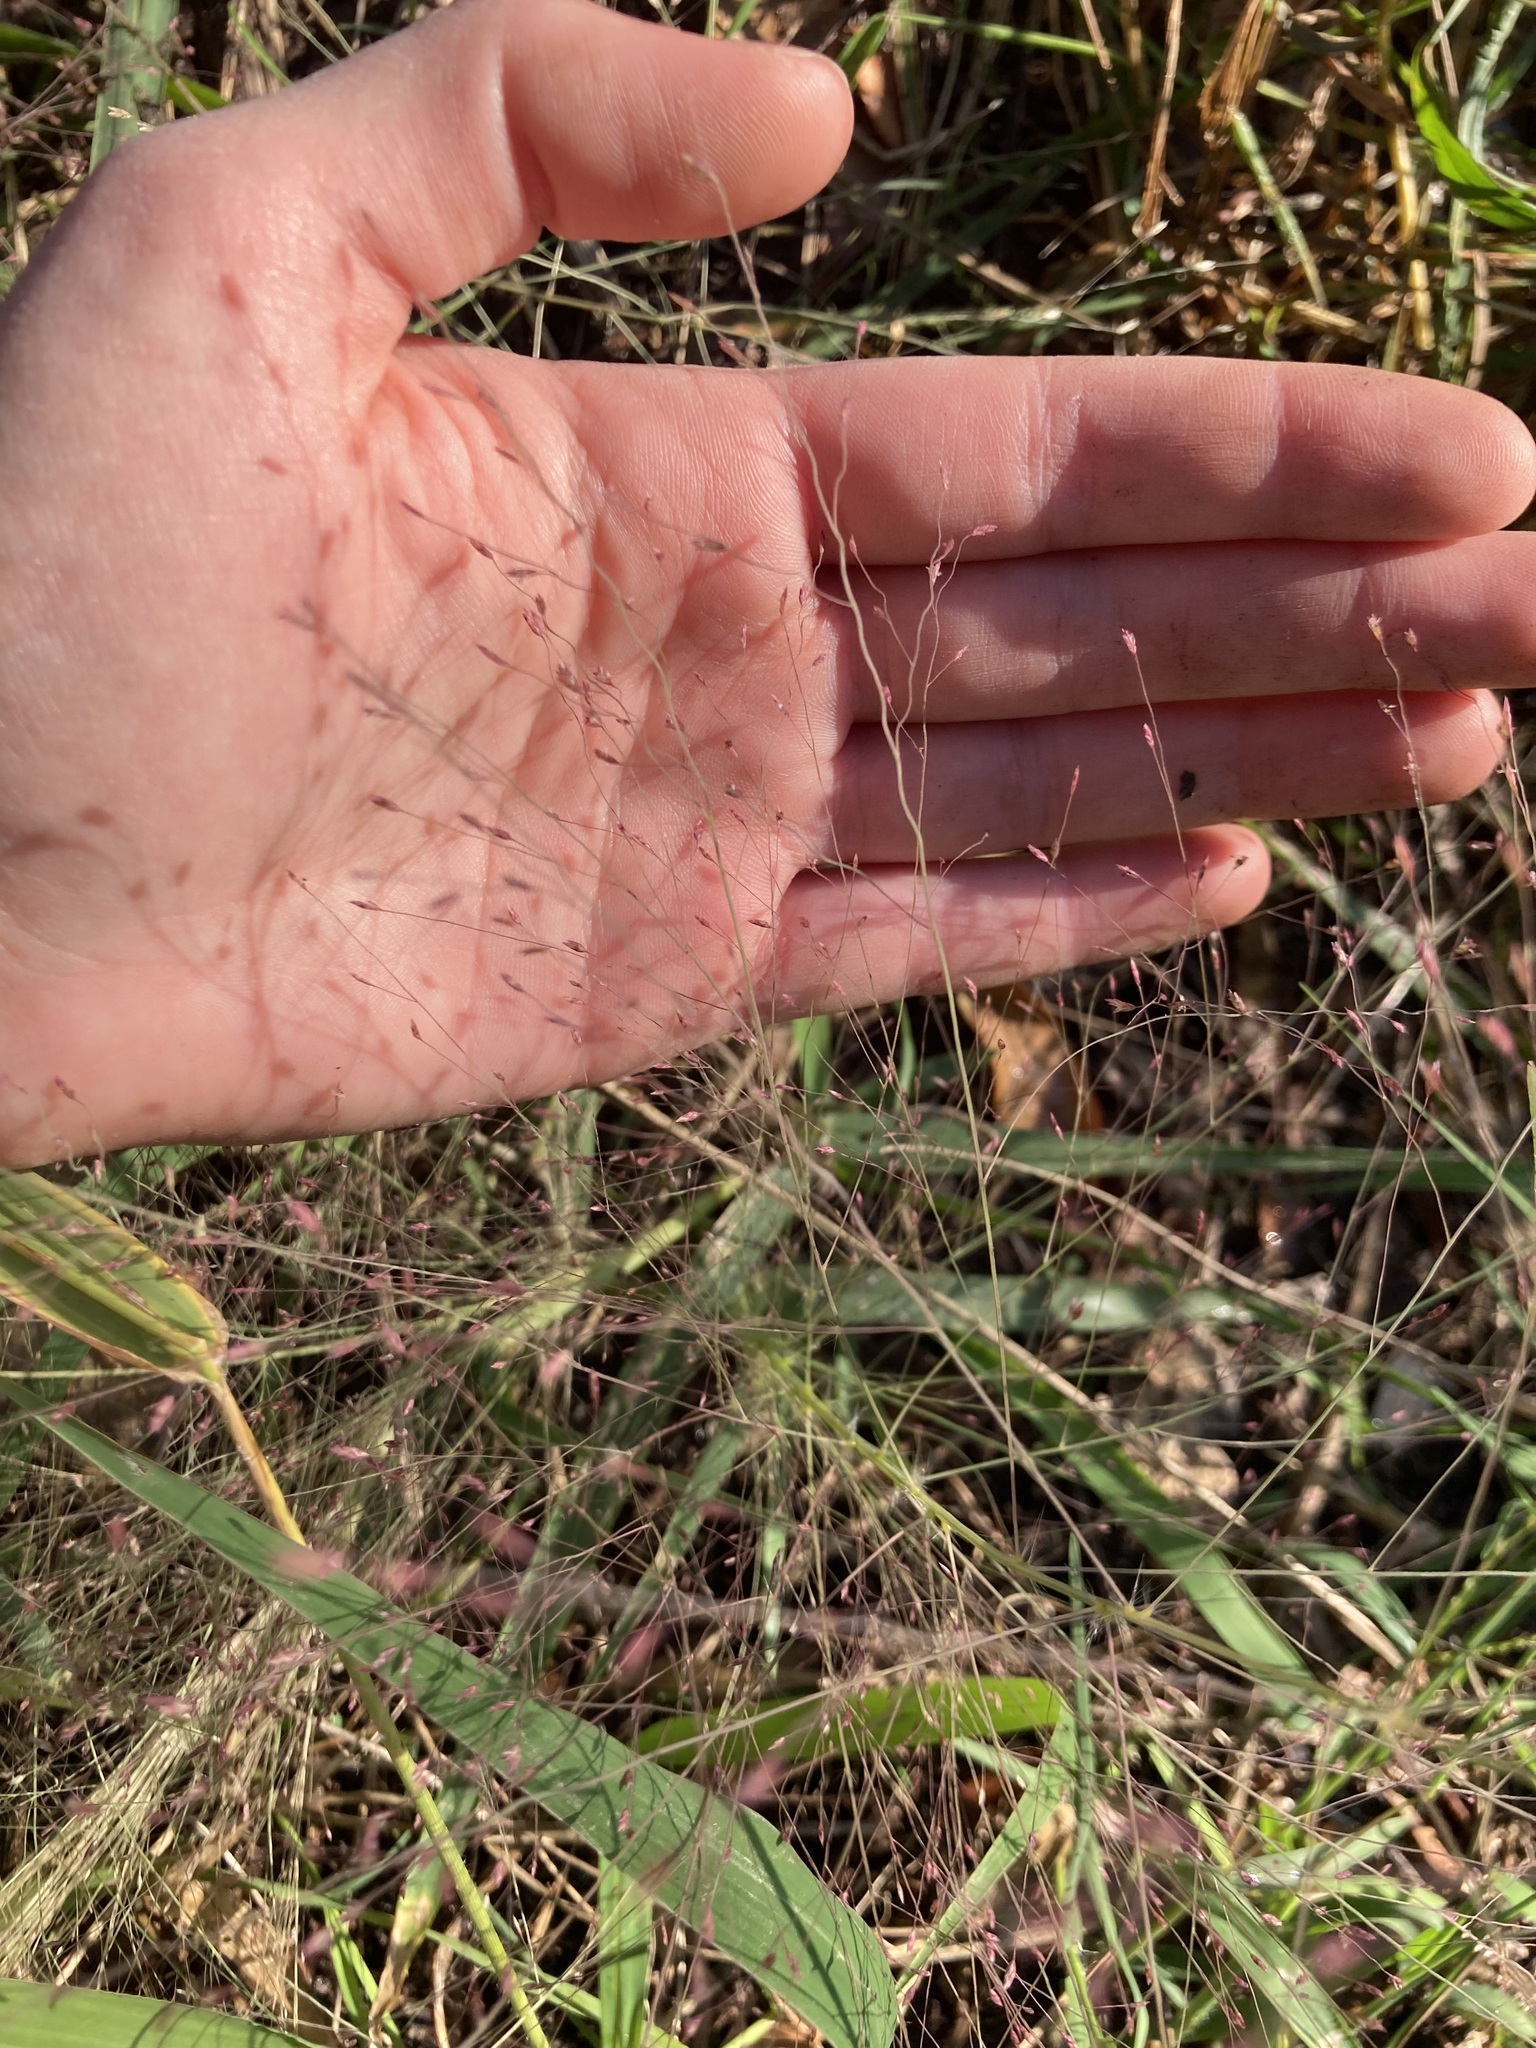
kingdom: Plantae
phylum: Tracheophyta
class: Liliopsida
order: Poales
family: Poaceae
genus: Eragrostis
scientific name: Eragrostis spectabilis
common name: Petticoat-climber
